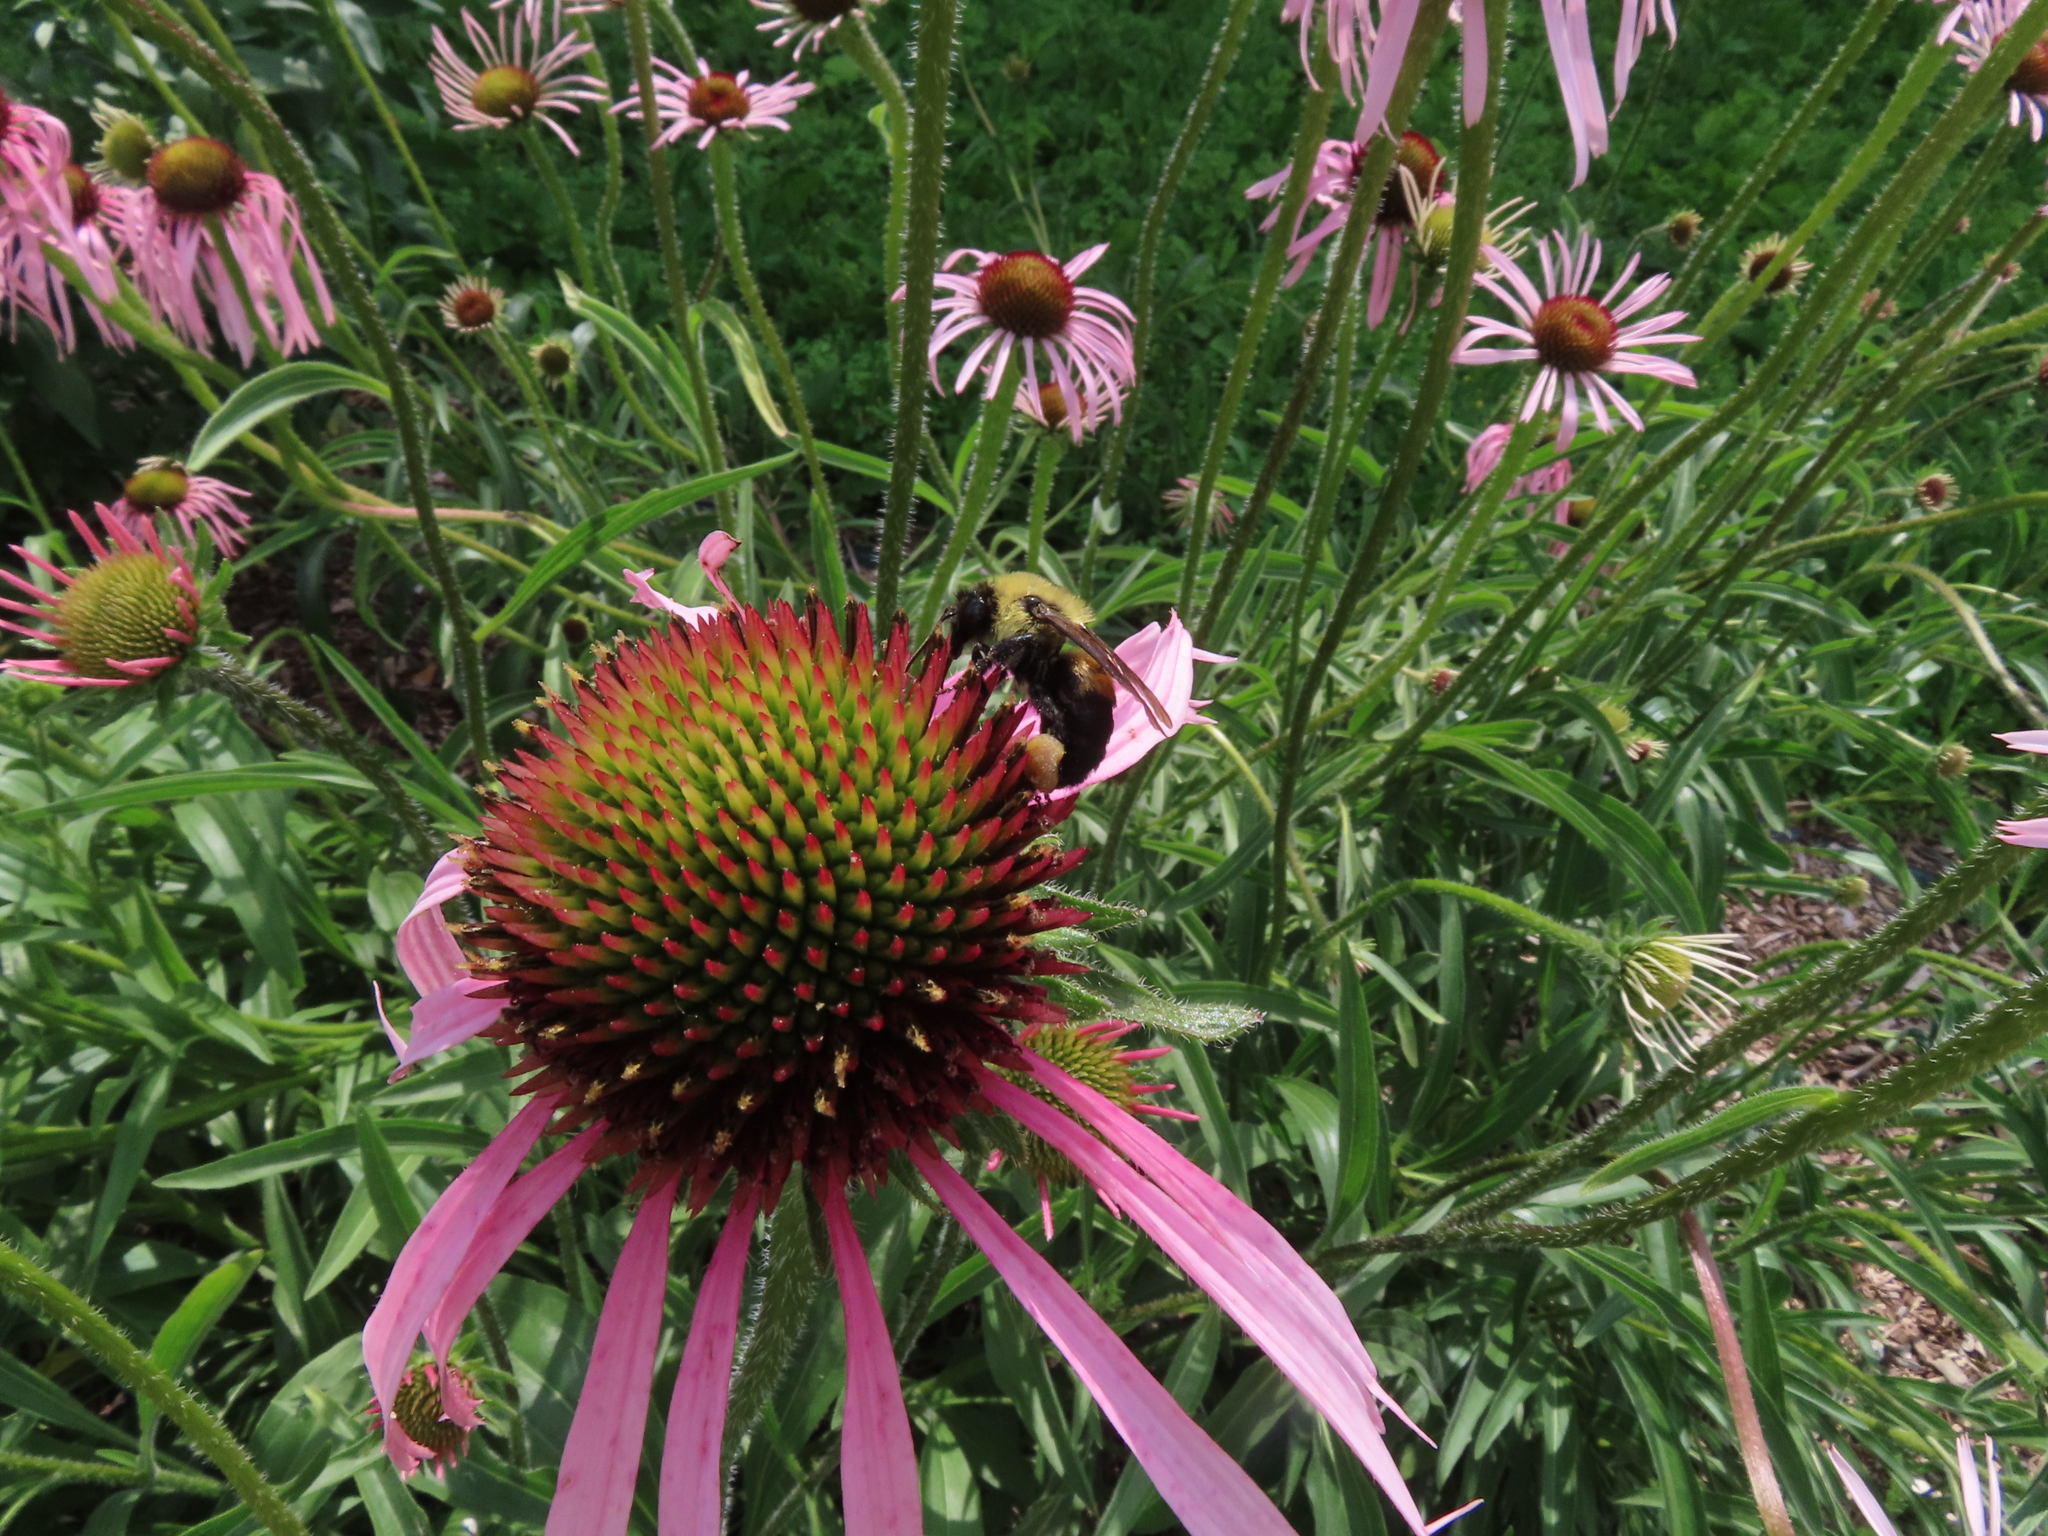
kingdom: Animalia
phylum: Arthropoda
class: Insecta
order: Hymenoptera
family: Apidae
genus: Bombus
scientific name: Bombus griseocollis
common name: Brown-belted bumble bee
